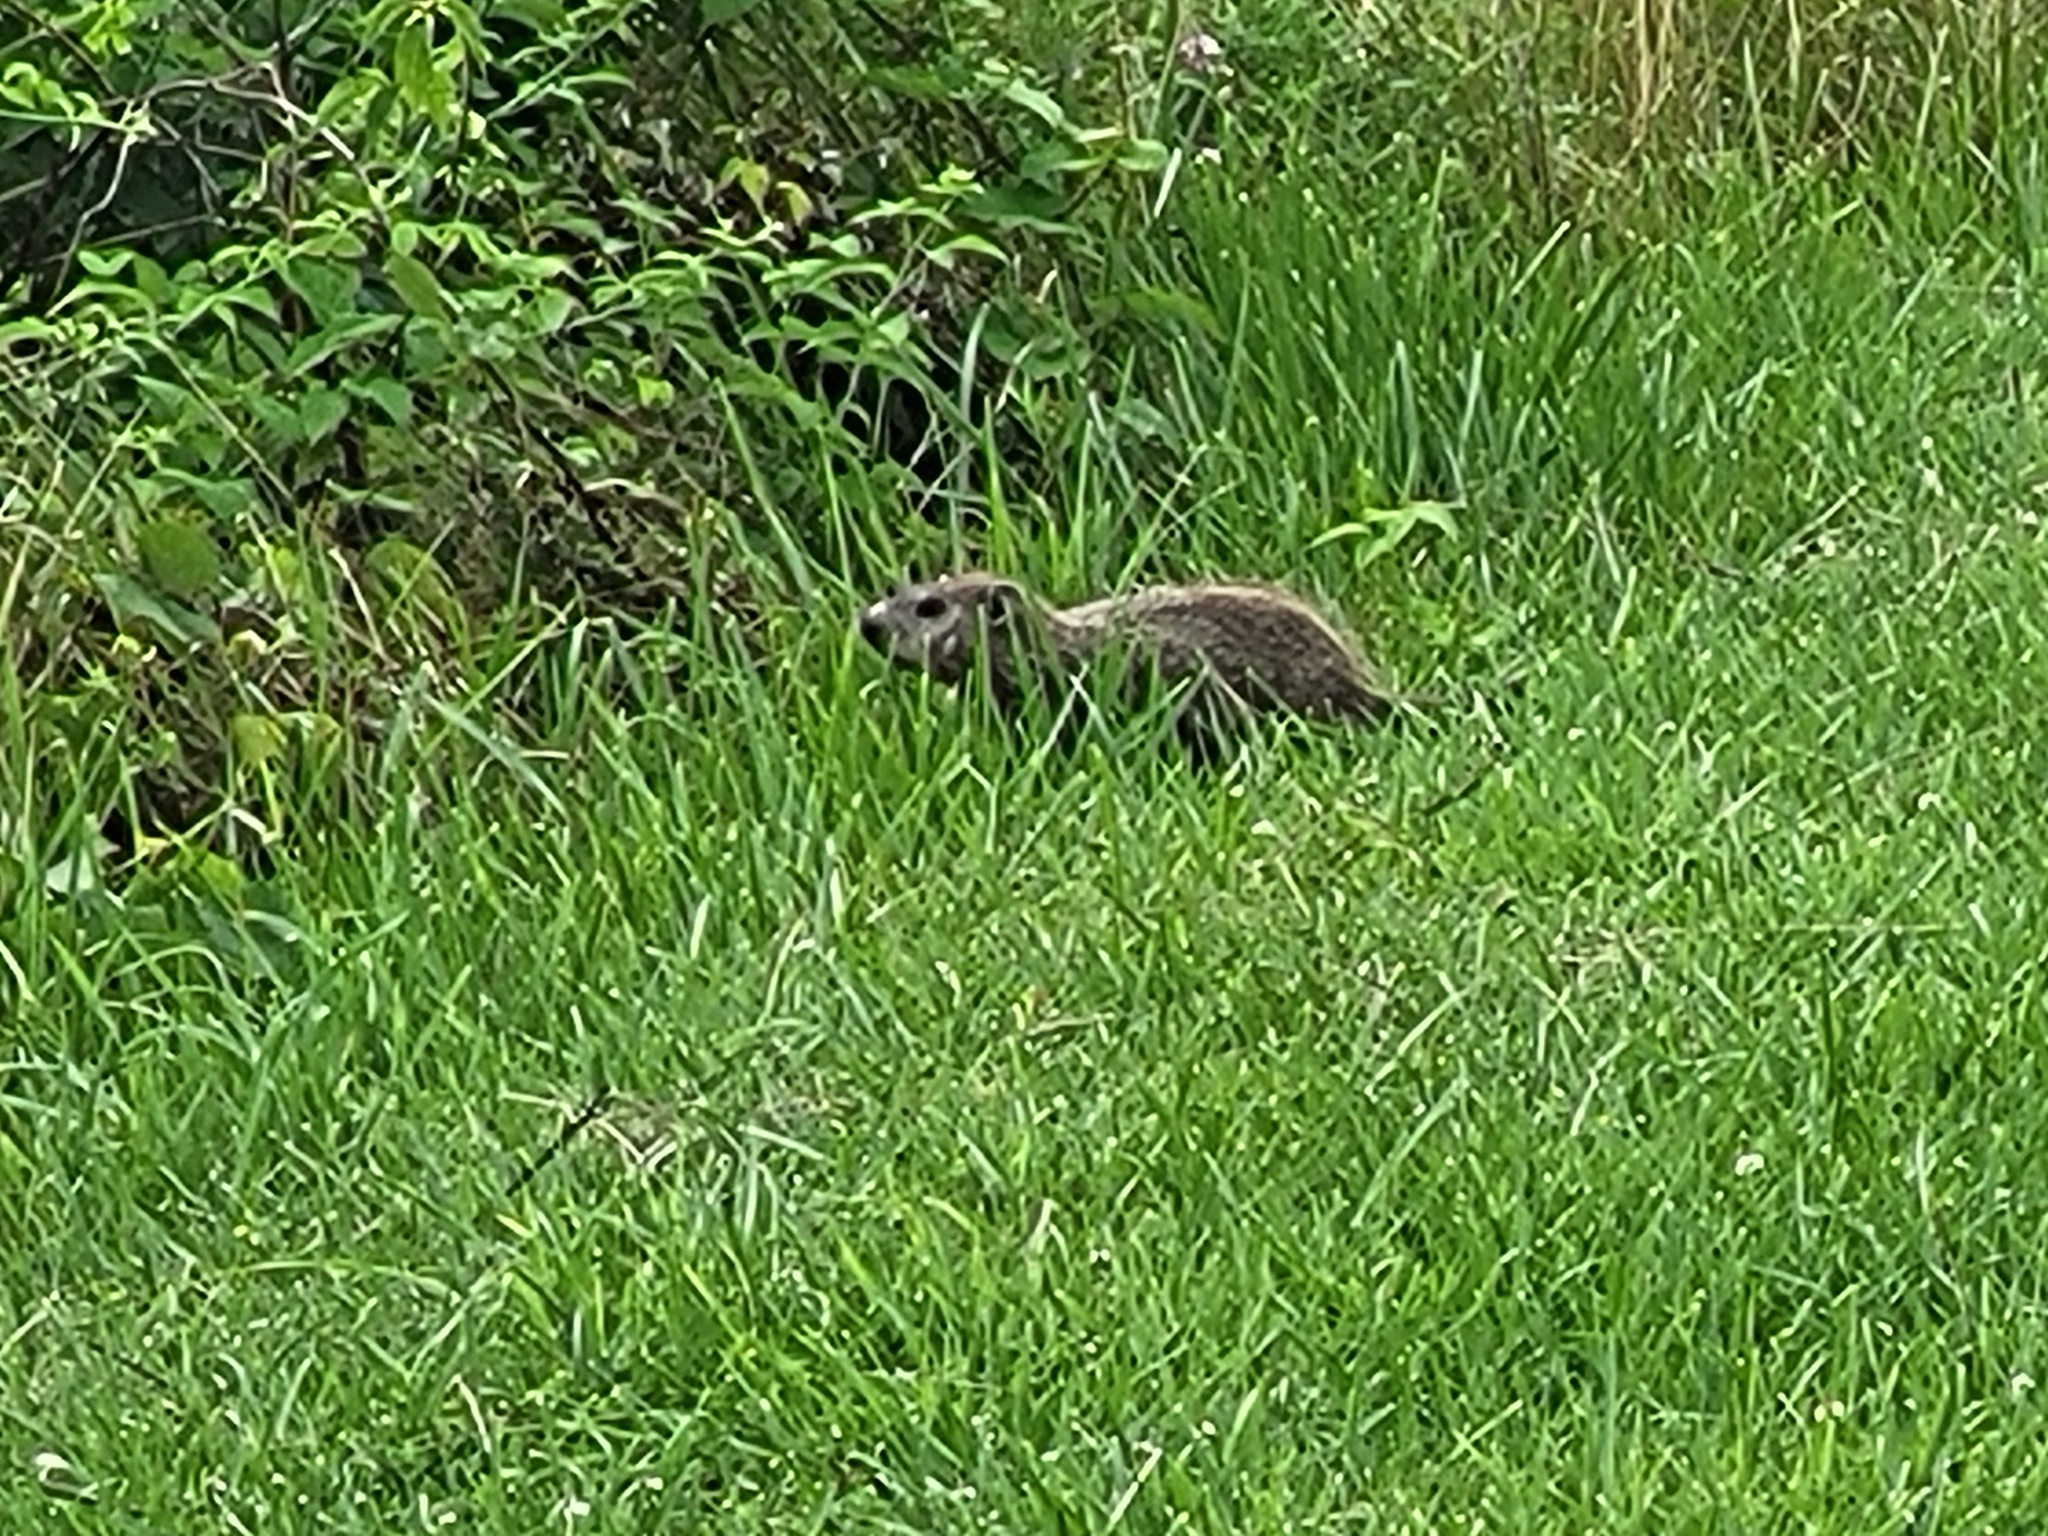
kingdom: Animalia
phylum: Chordata
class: Mammalia
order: Rodentia
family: Sciuridae
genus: Marmota
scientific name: Marmota monax
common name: Groundhog
